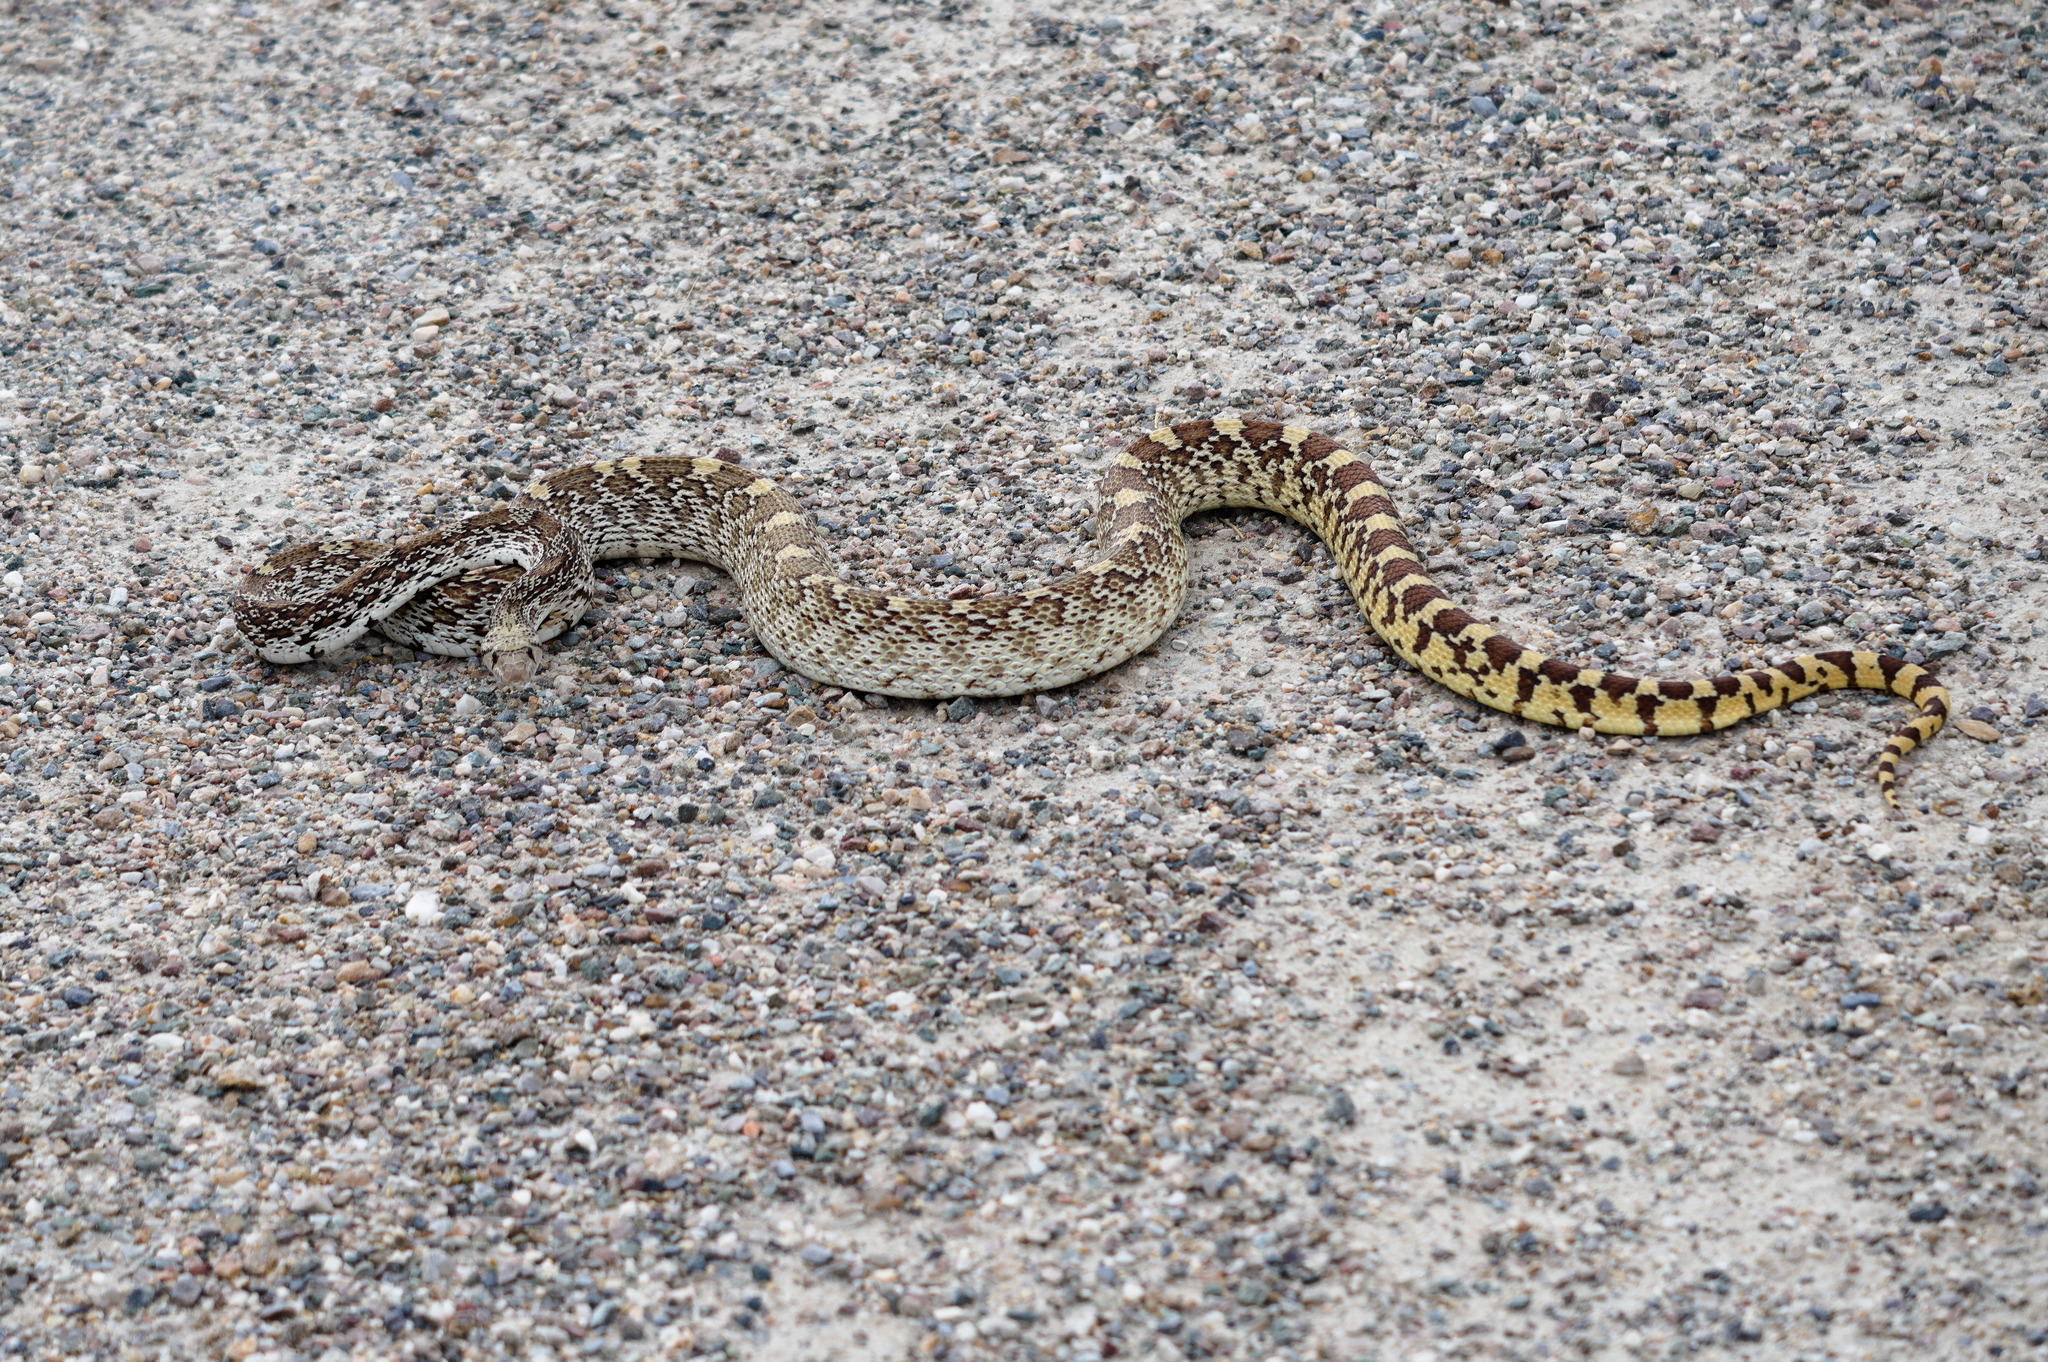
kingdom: Animalia
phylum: Chordata
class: Squamata
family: Colubridae
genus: Pituophis
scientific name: Pituophis catenifer
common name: Gopher snake
